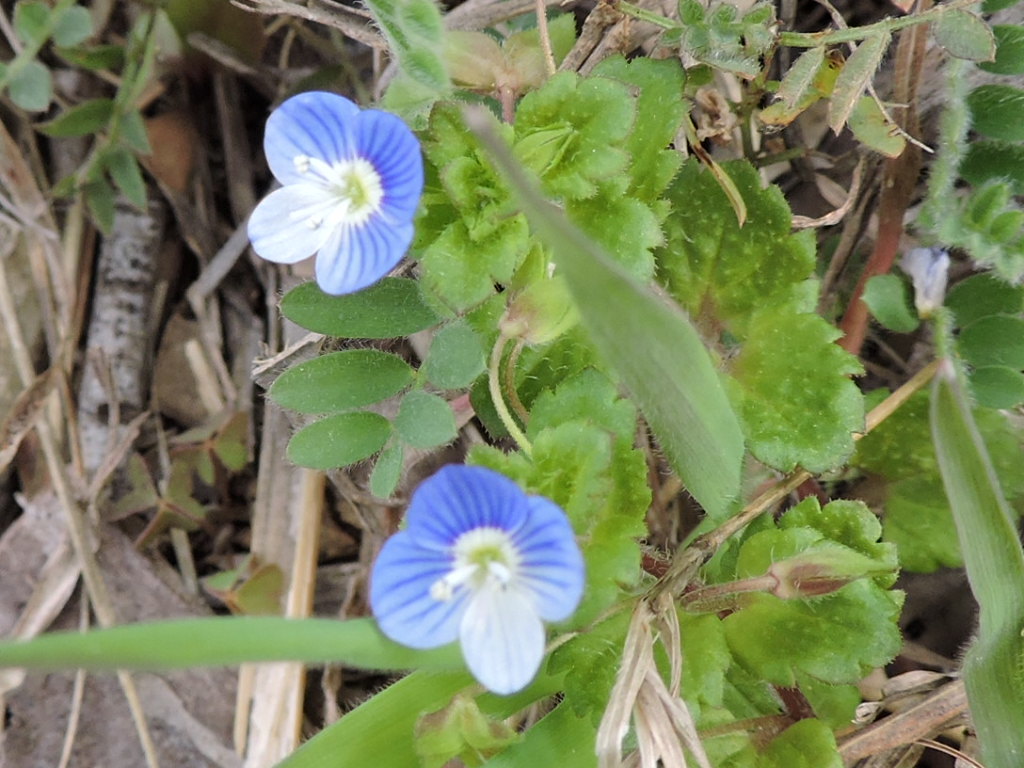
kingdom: Plantae
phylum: Tracheophyta
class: Magnoliopsida
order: Lamiales
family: Plantaginaceae
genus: Veronica
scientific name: Veronica persica
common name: Common field-speedwell
